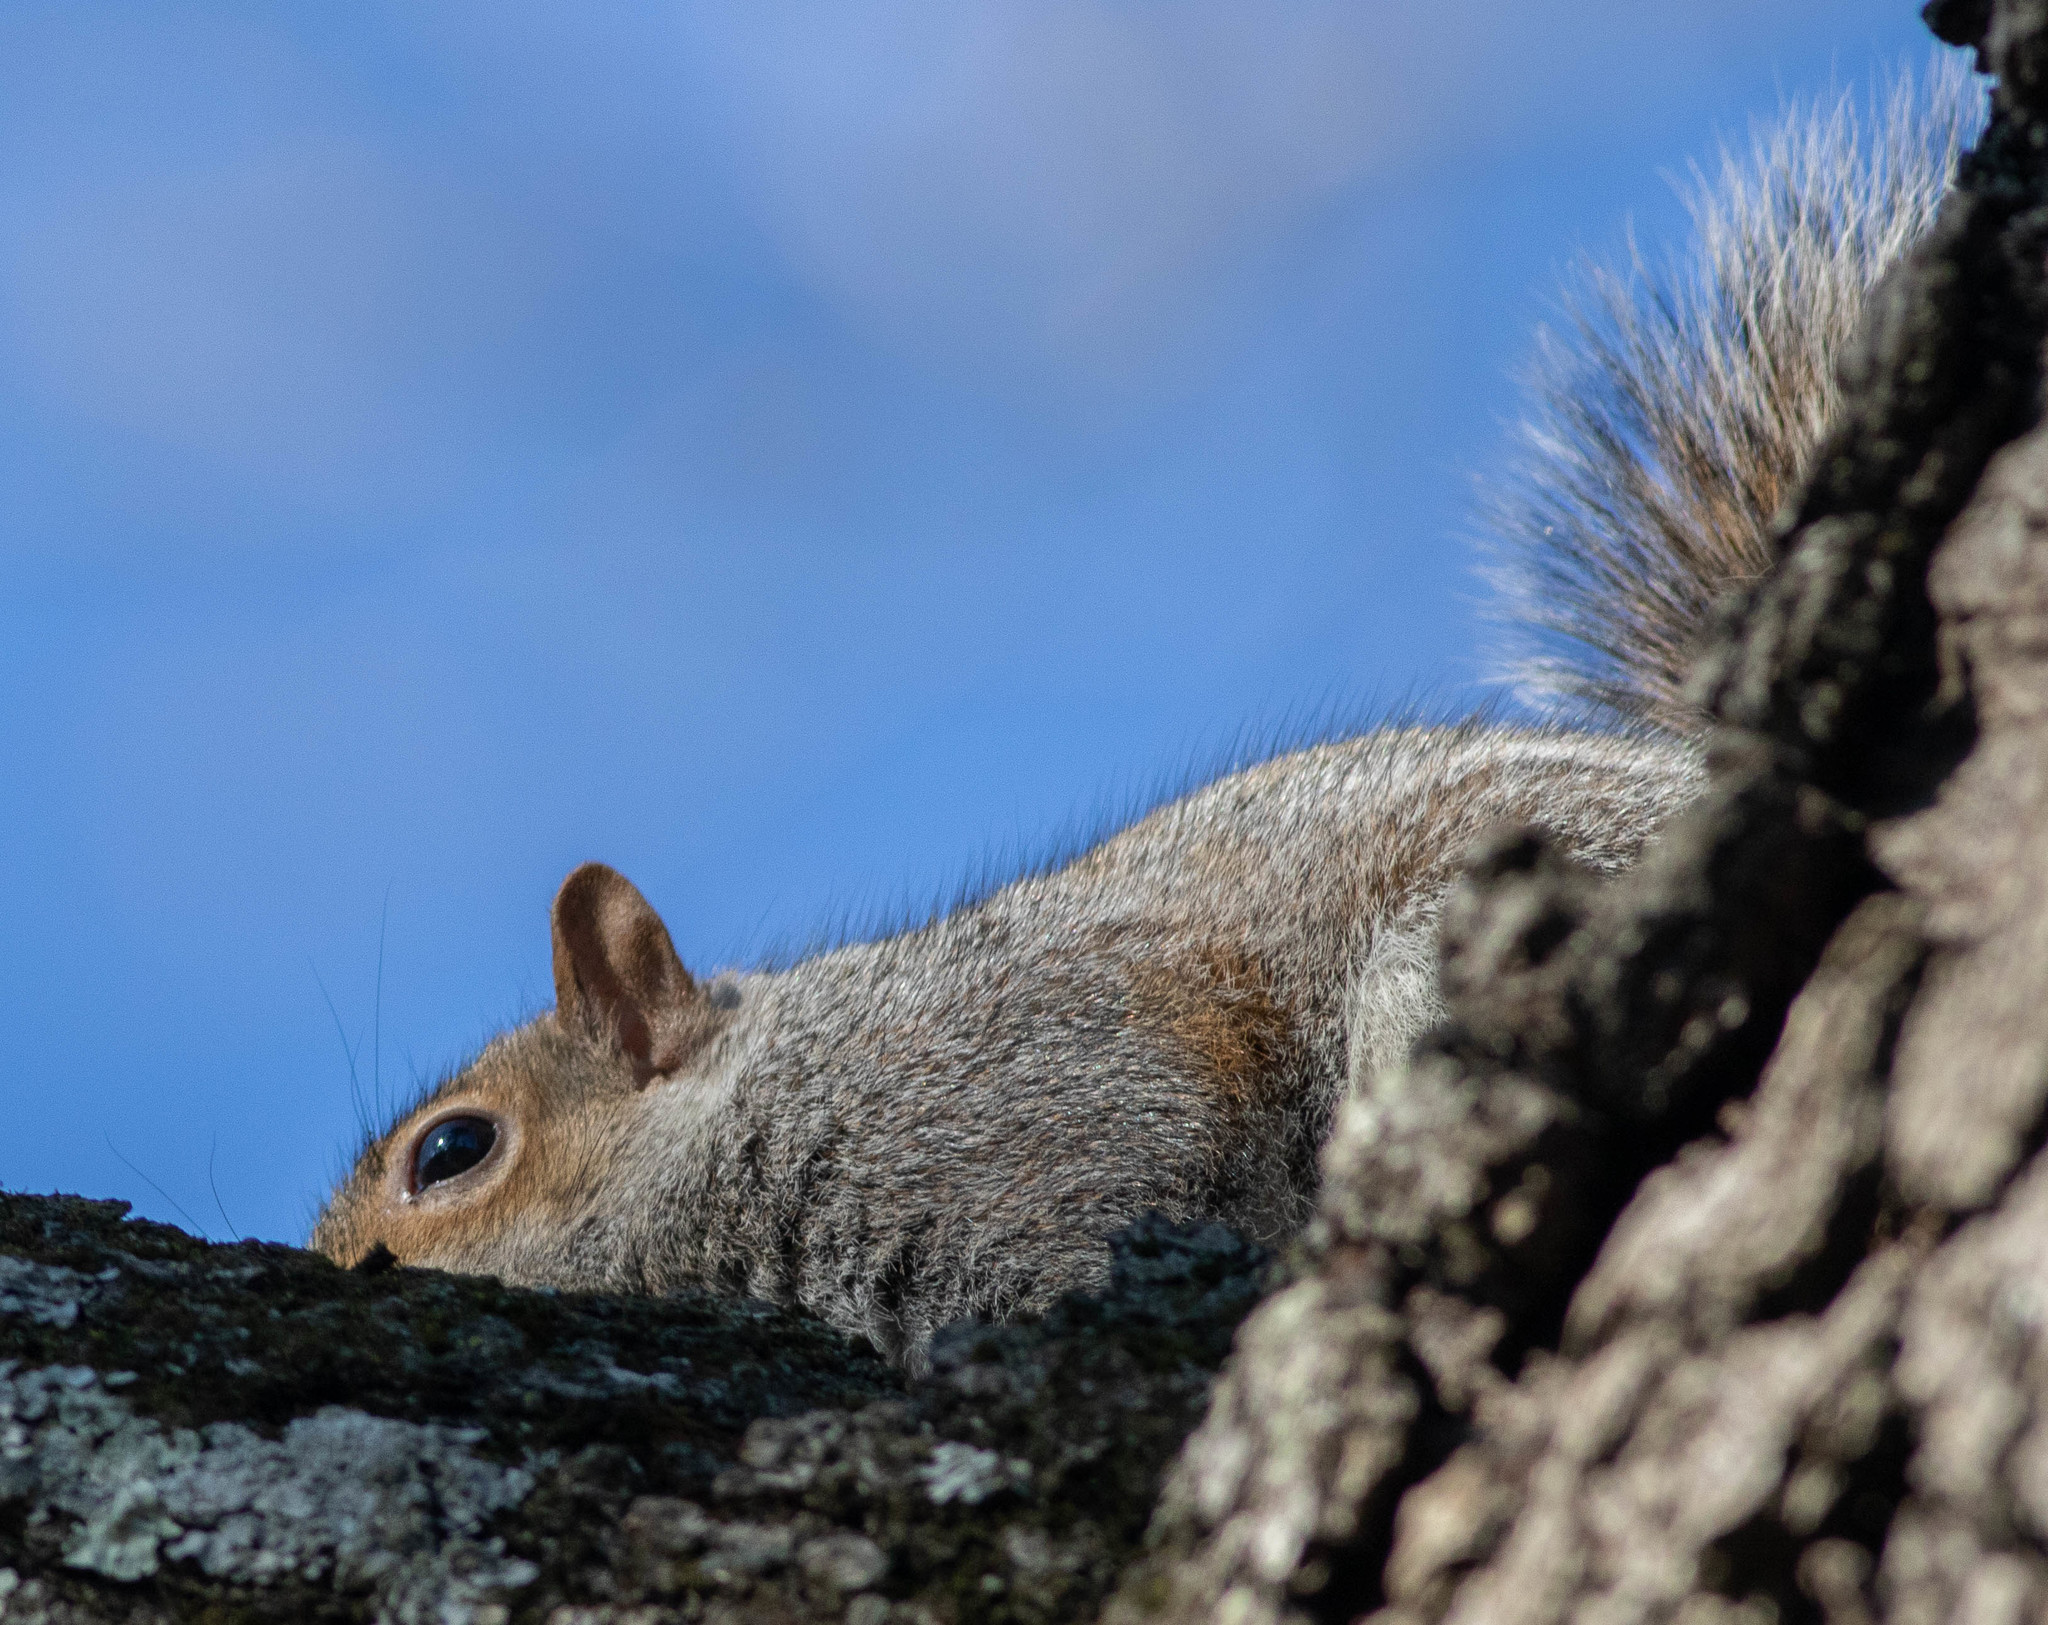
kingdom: Animalia
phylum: Chordata
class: Mammalia
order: Rodentia
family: Sciuridae
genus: Sciurus
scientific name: Sciurus carolinensis
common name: Eastern gray squirrel
